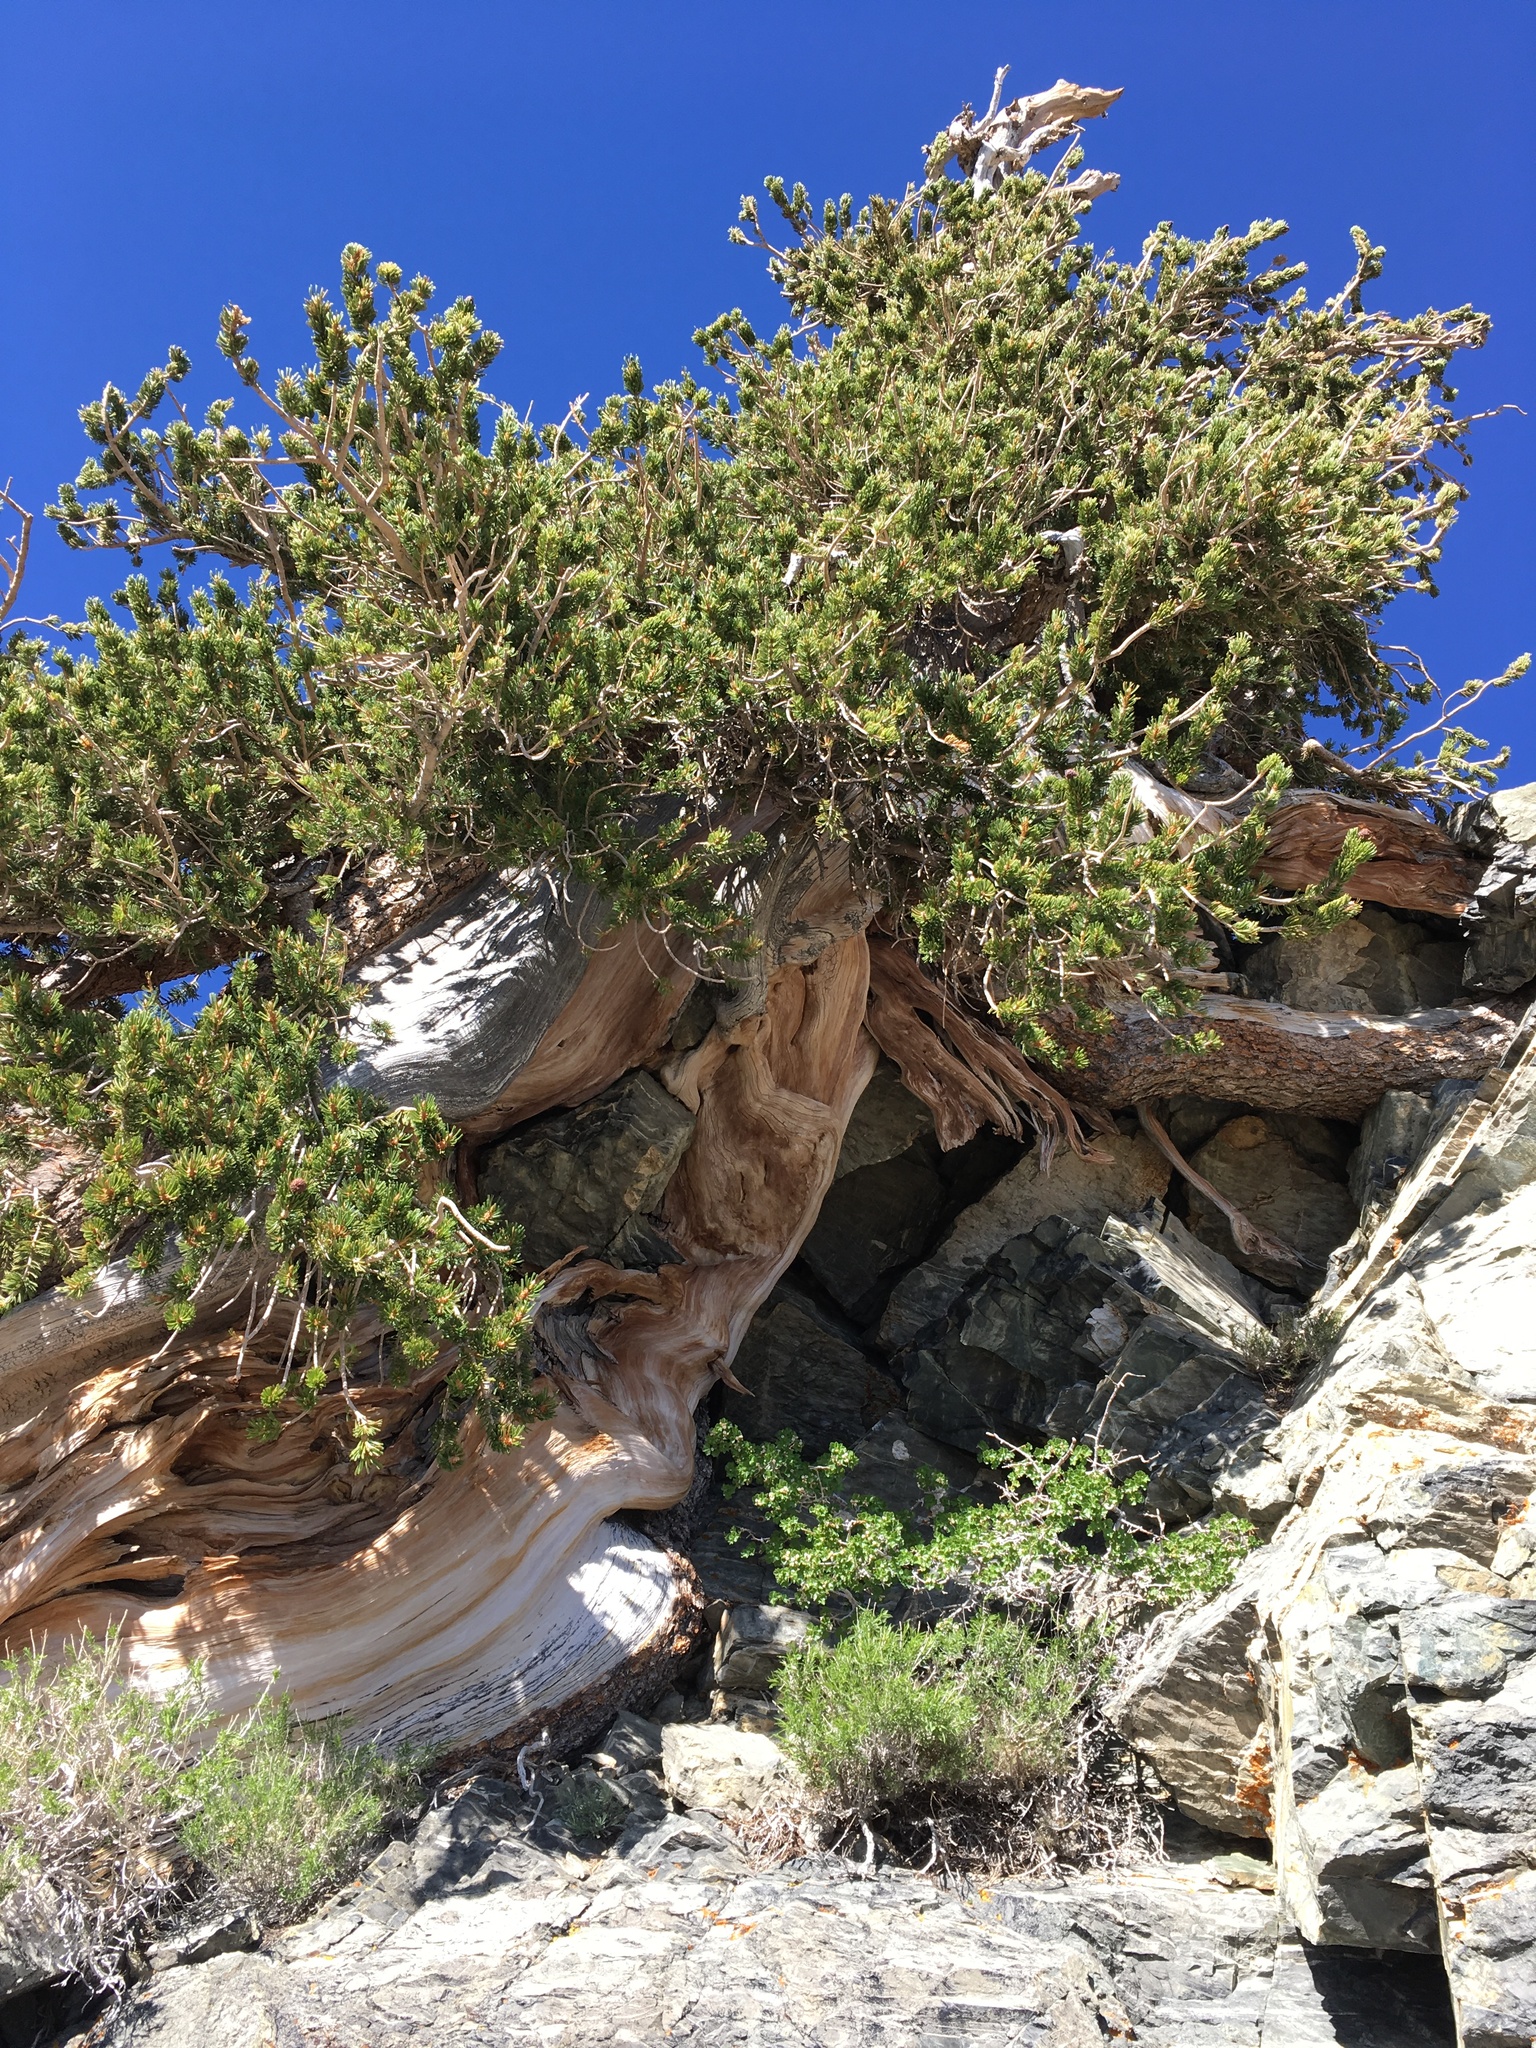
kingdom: Plantae
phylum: Tracheophyta
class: Pinopsida
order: Pinales
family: Pinaceae
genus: Pinus
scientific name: Pinus longaeva
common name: Intermountain bristlecone pine
